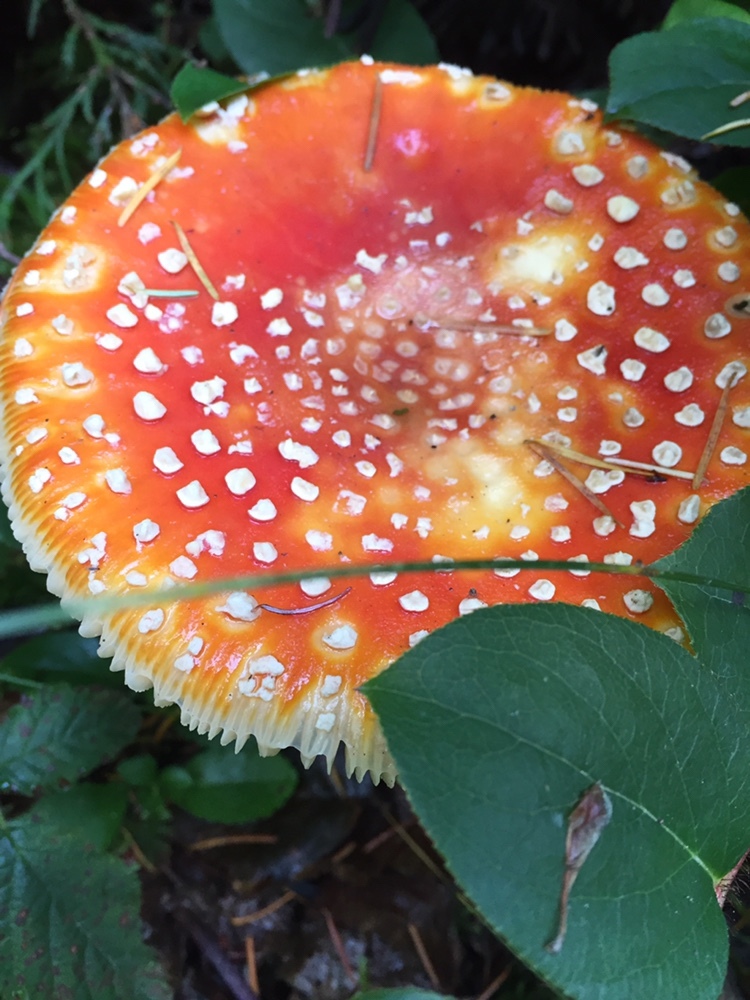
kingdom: Fungi
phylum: Basidiomycota
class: Agaricomycetes
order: Agaricales
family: Amanitaceae
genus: Amanita
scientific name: Amanita muscaria
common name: Fly agaric
